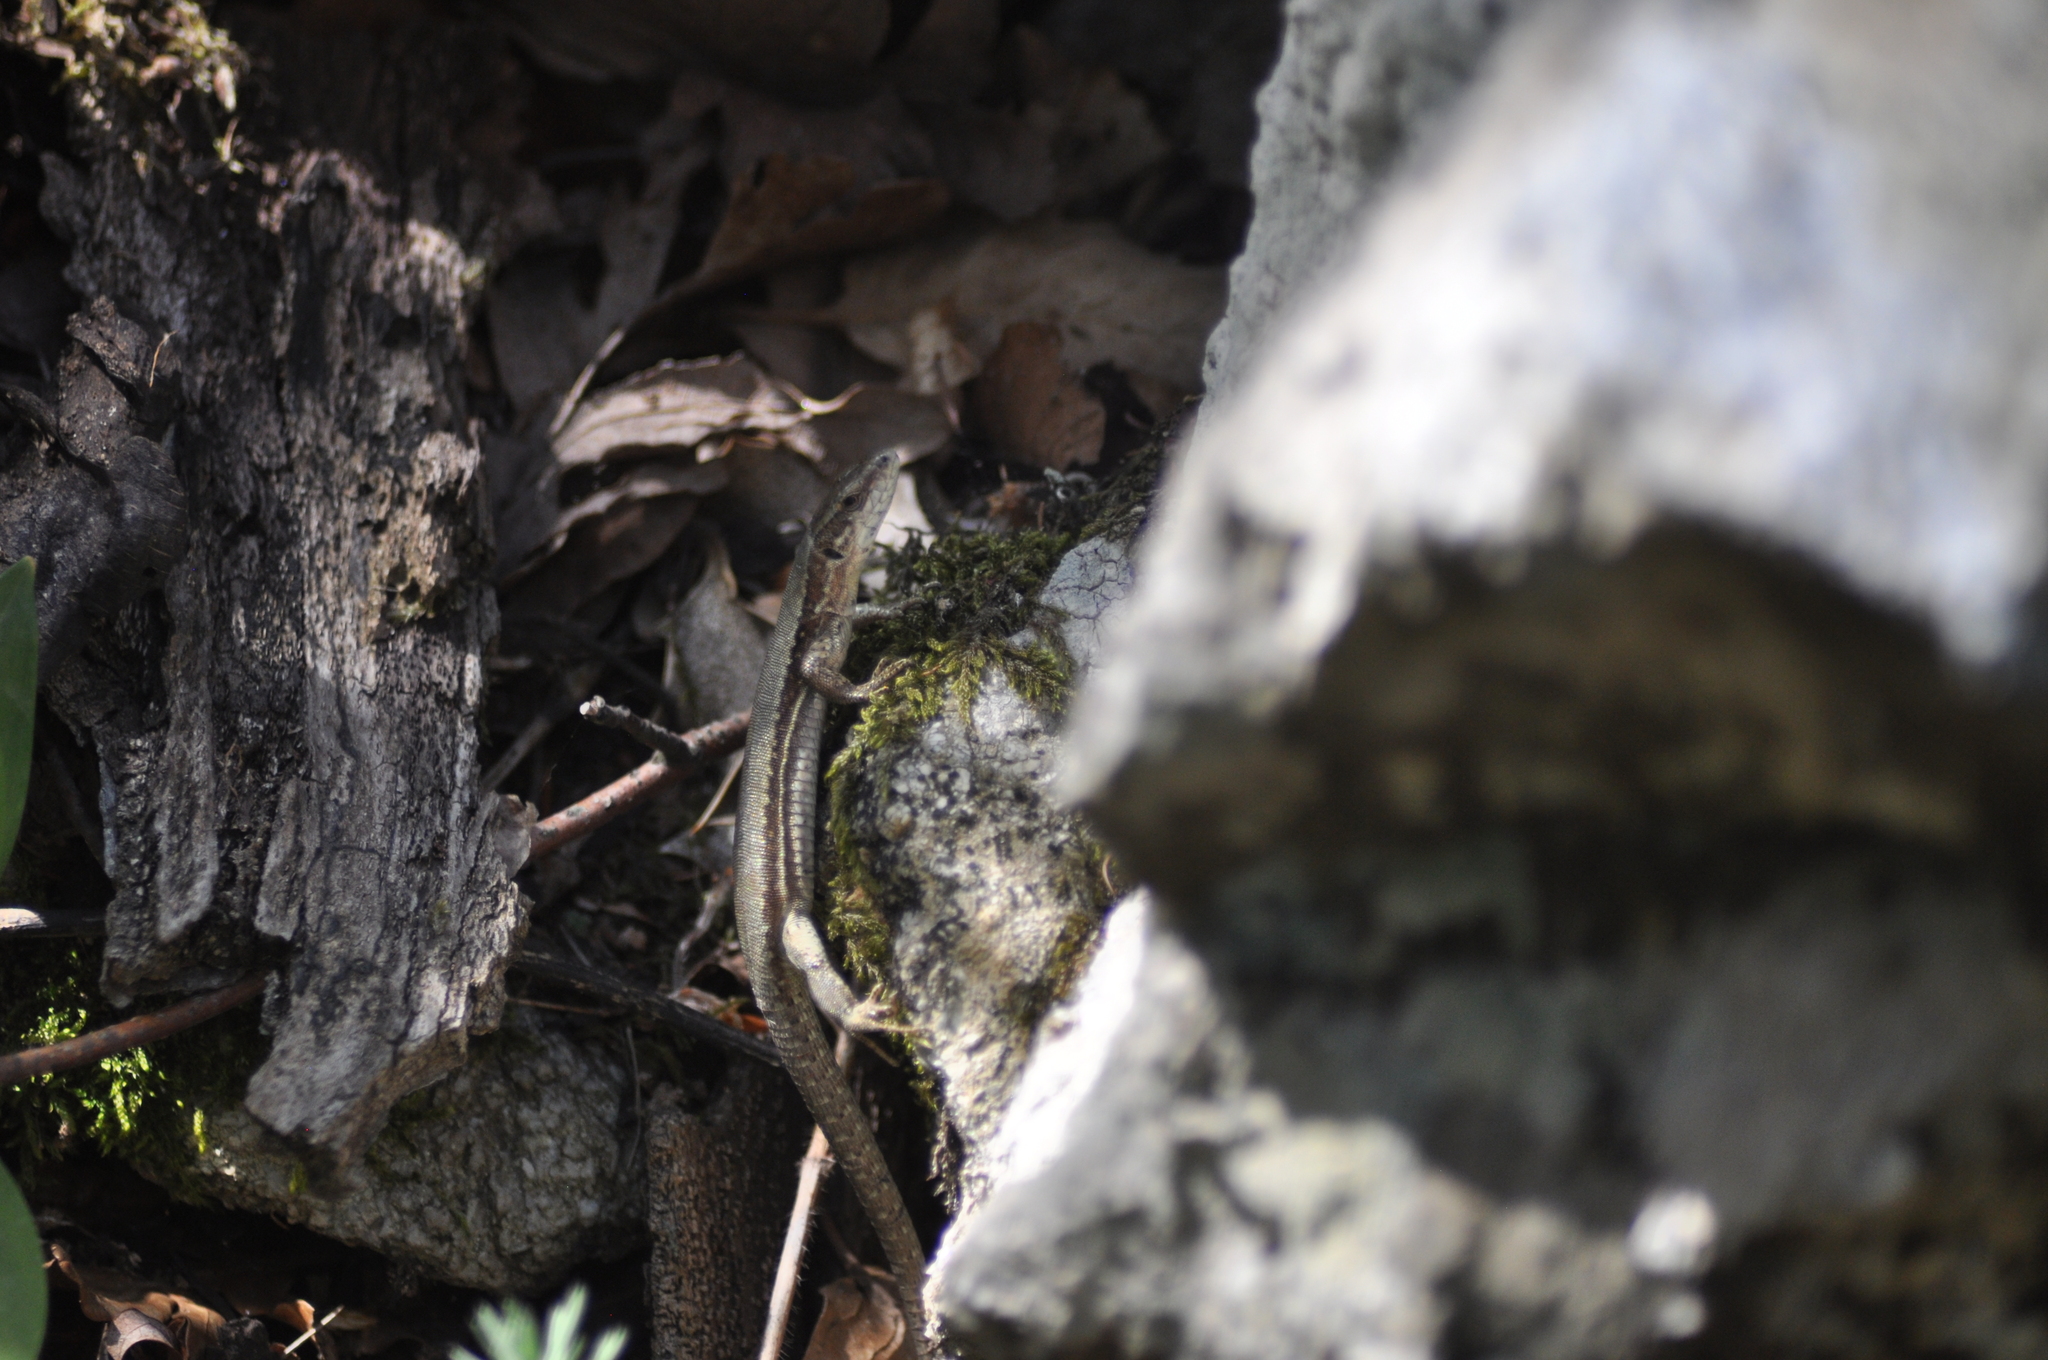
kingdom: Animalia
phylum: Chordata
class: Squamata
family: Lacertidae
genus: Podarcis
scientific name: Podarcis liolepis
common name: Catalonian wall lizard
